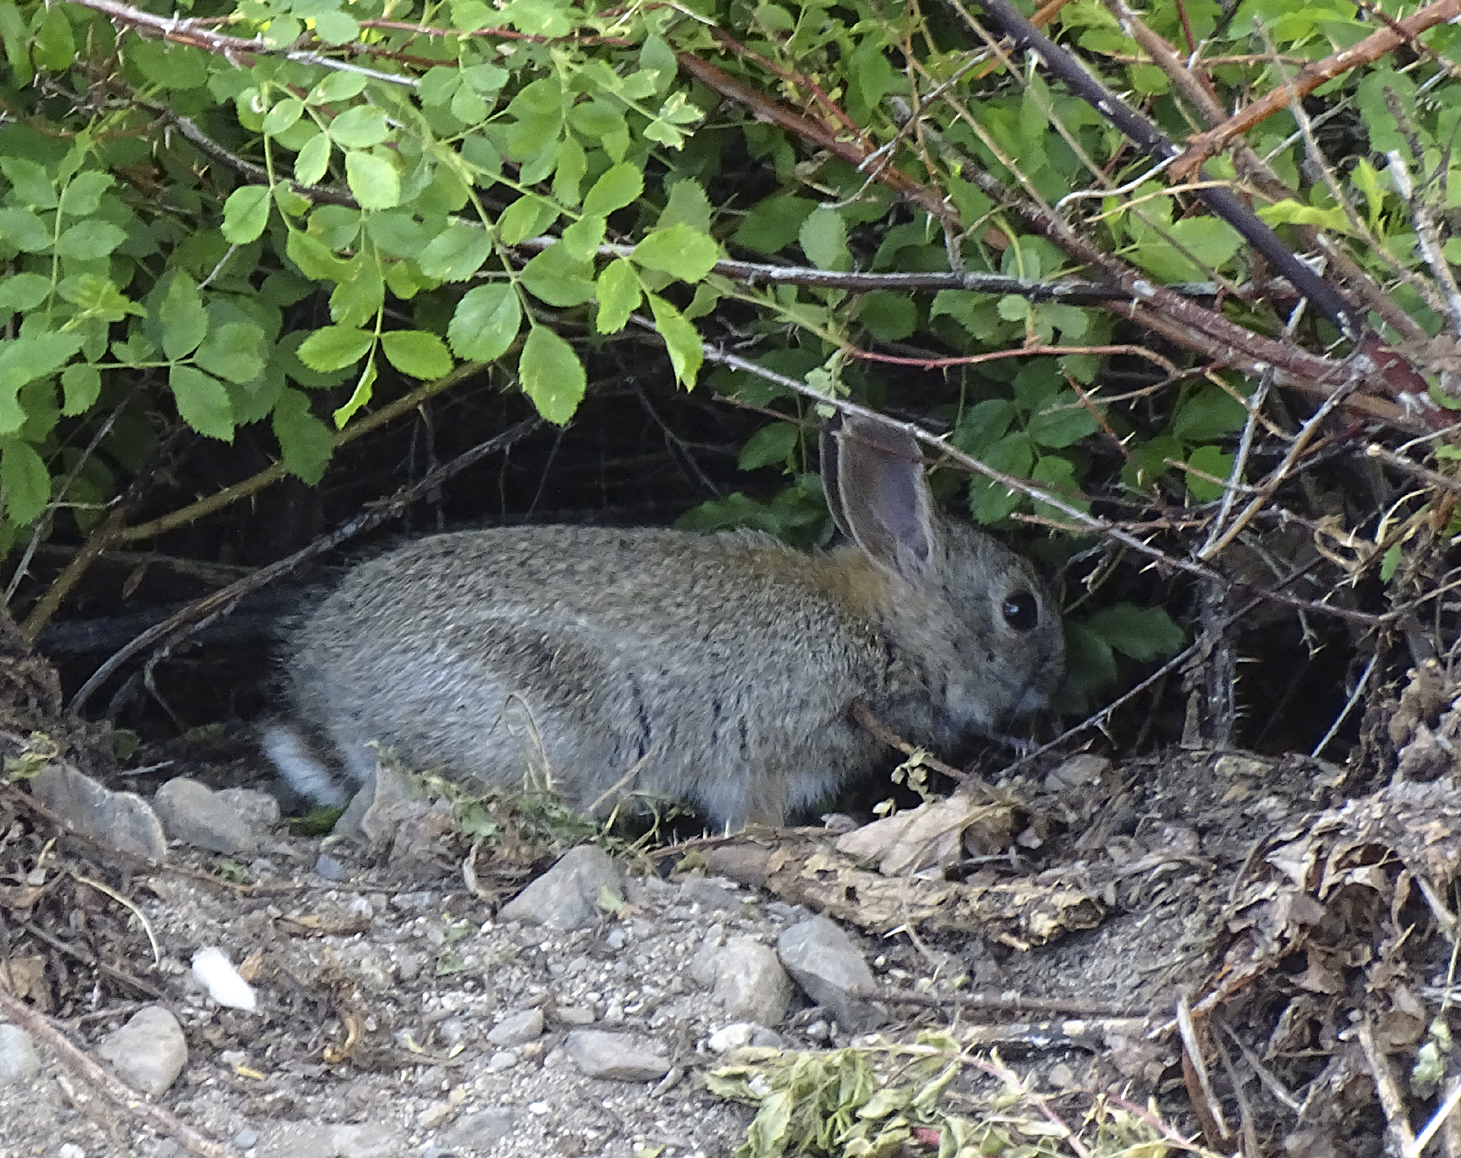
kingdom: Animalia
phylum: Chordata
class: Mammalia
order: Lagomorpha
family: Leporidae
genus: Sylvilagus
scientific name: Sylvilagus nuttallii
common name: Mountain cottontail
